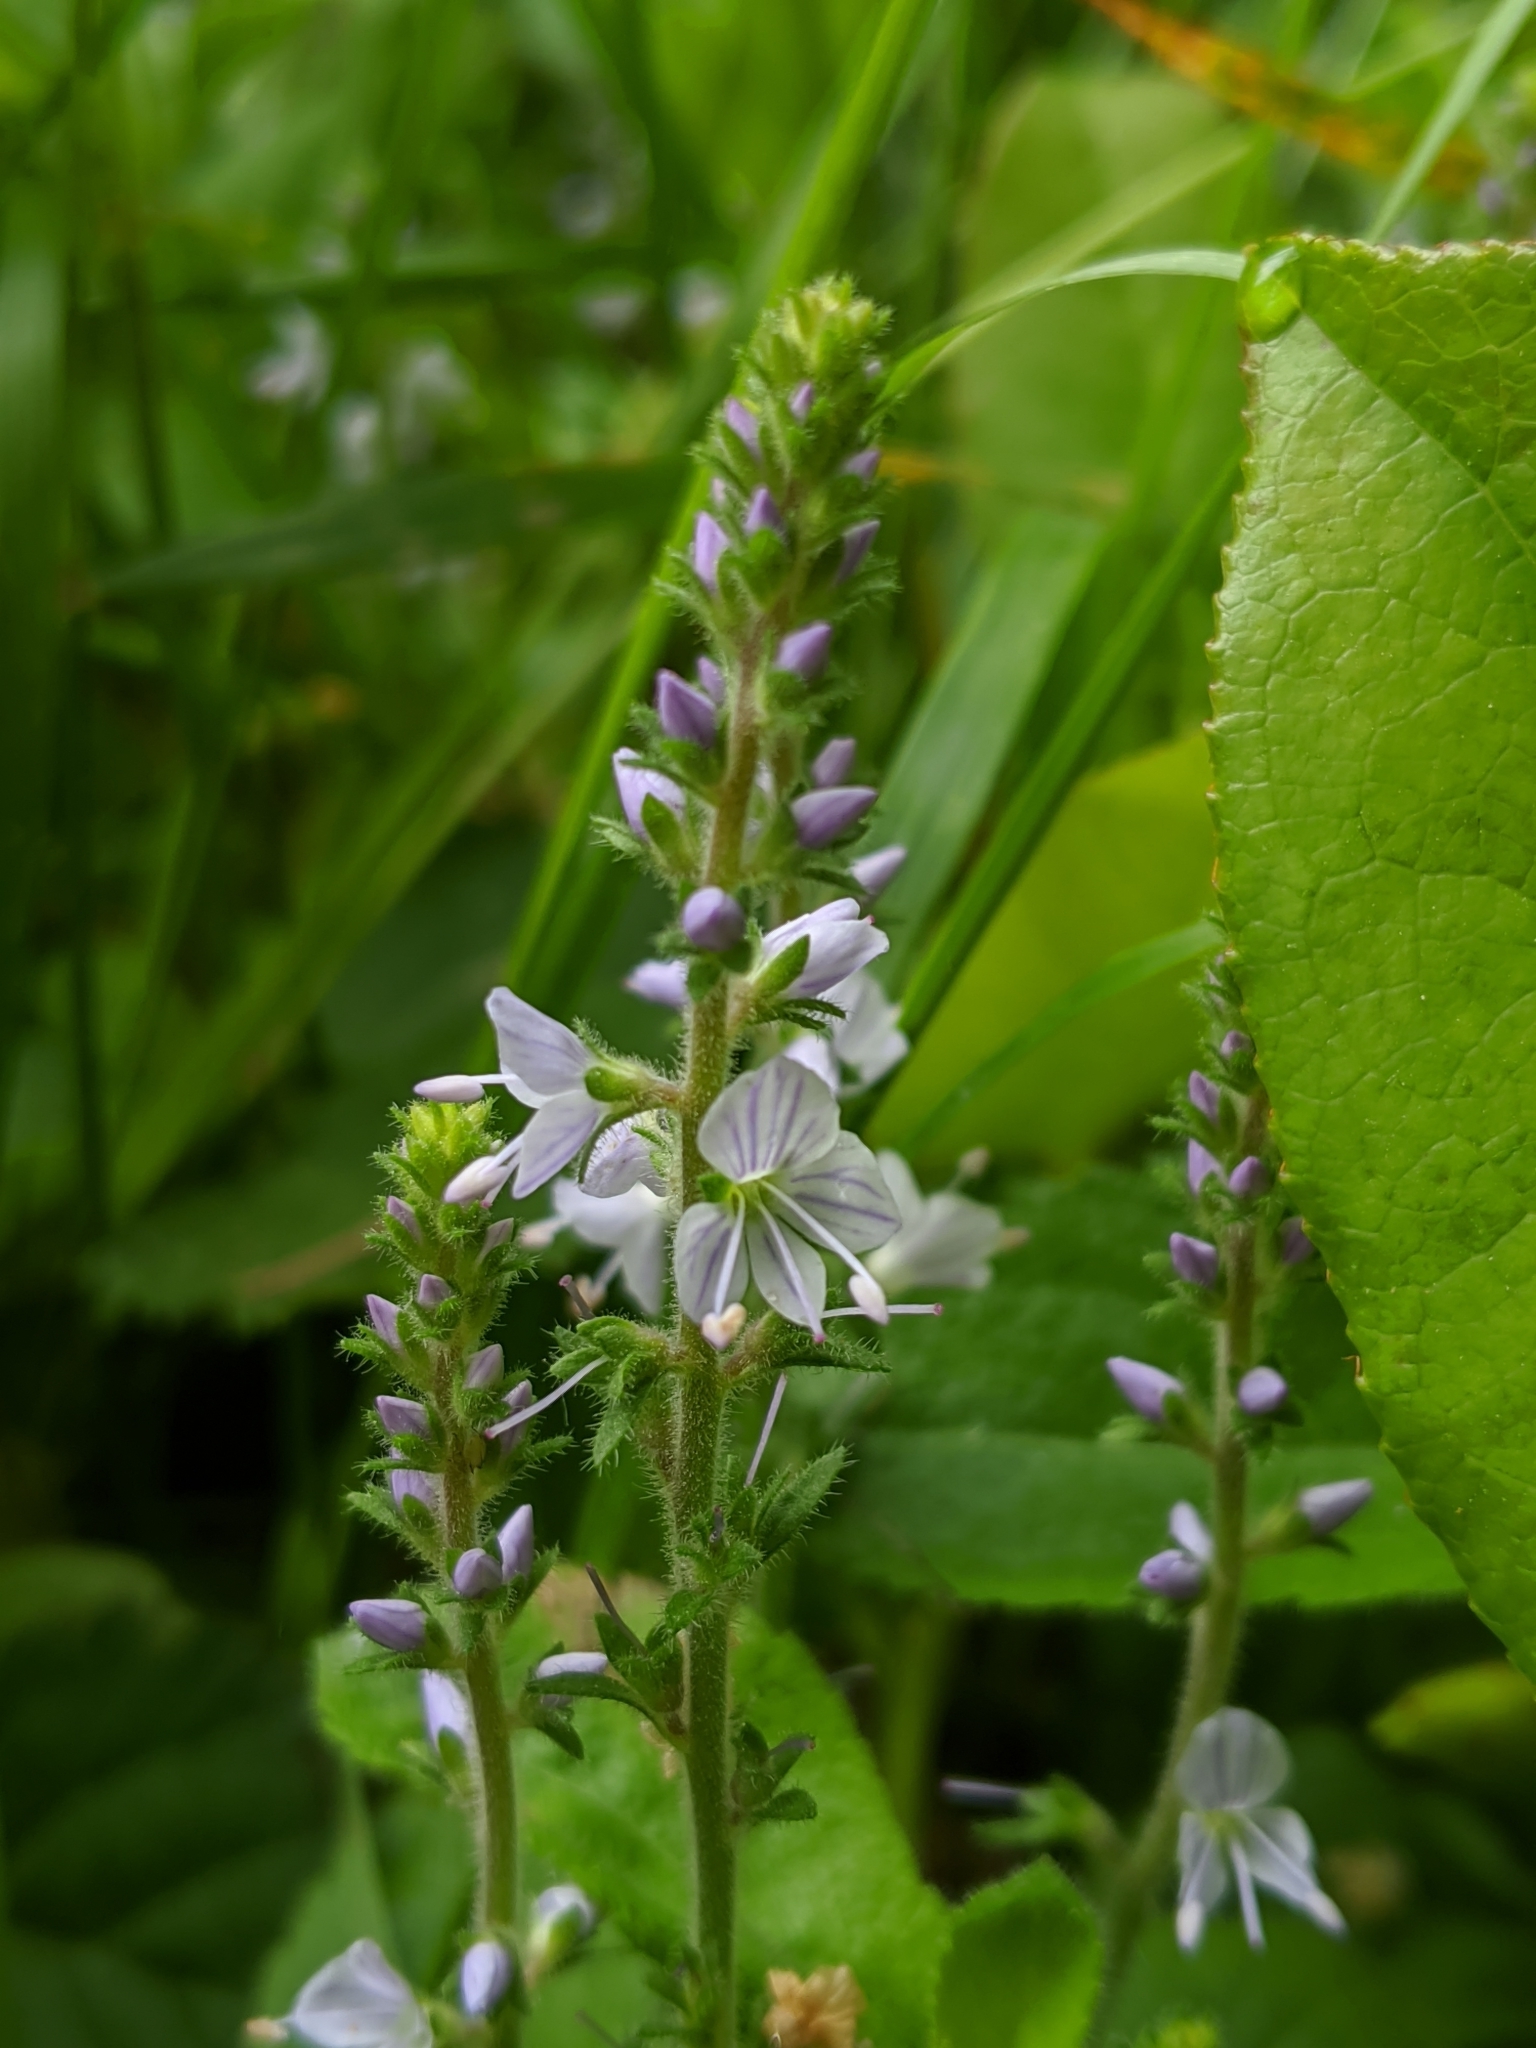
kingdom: Plantae
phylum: Tracheophyta
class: Magnoliopsida
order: Lamiales
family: Plantaginaceae
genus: Veronica
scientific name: Veronica officinalis
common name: Common speedwell
